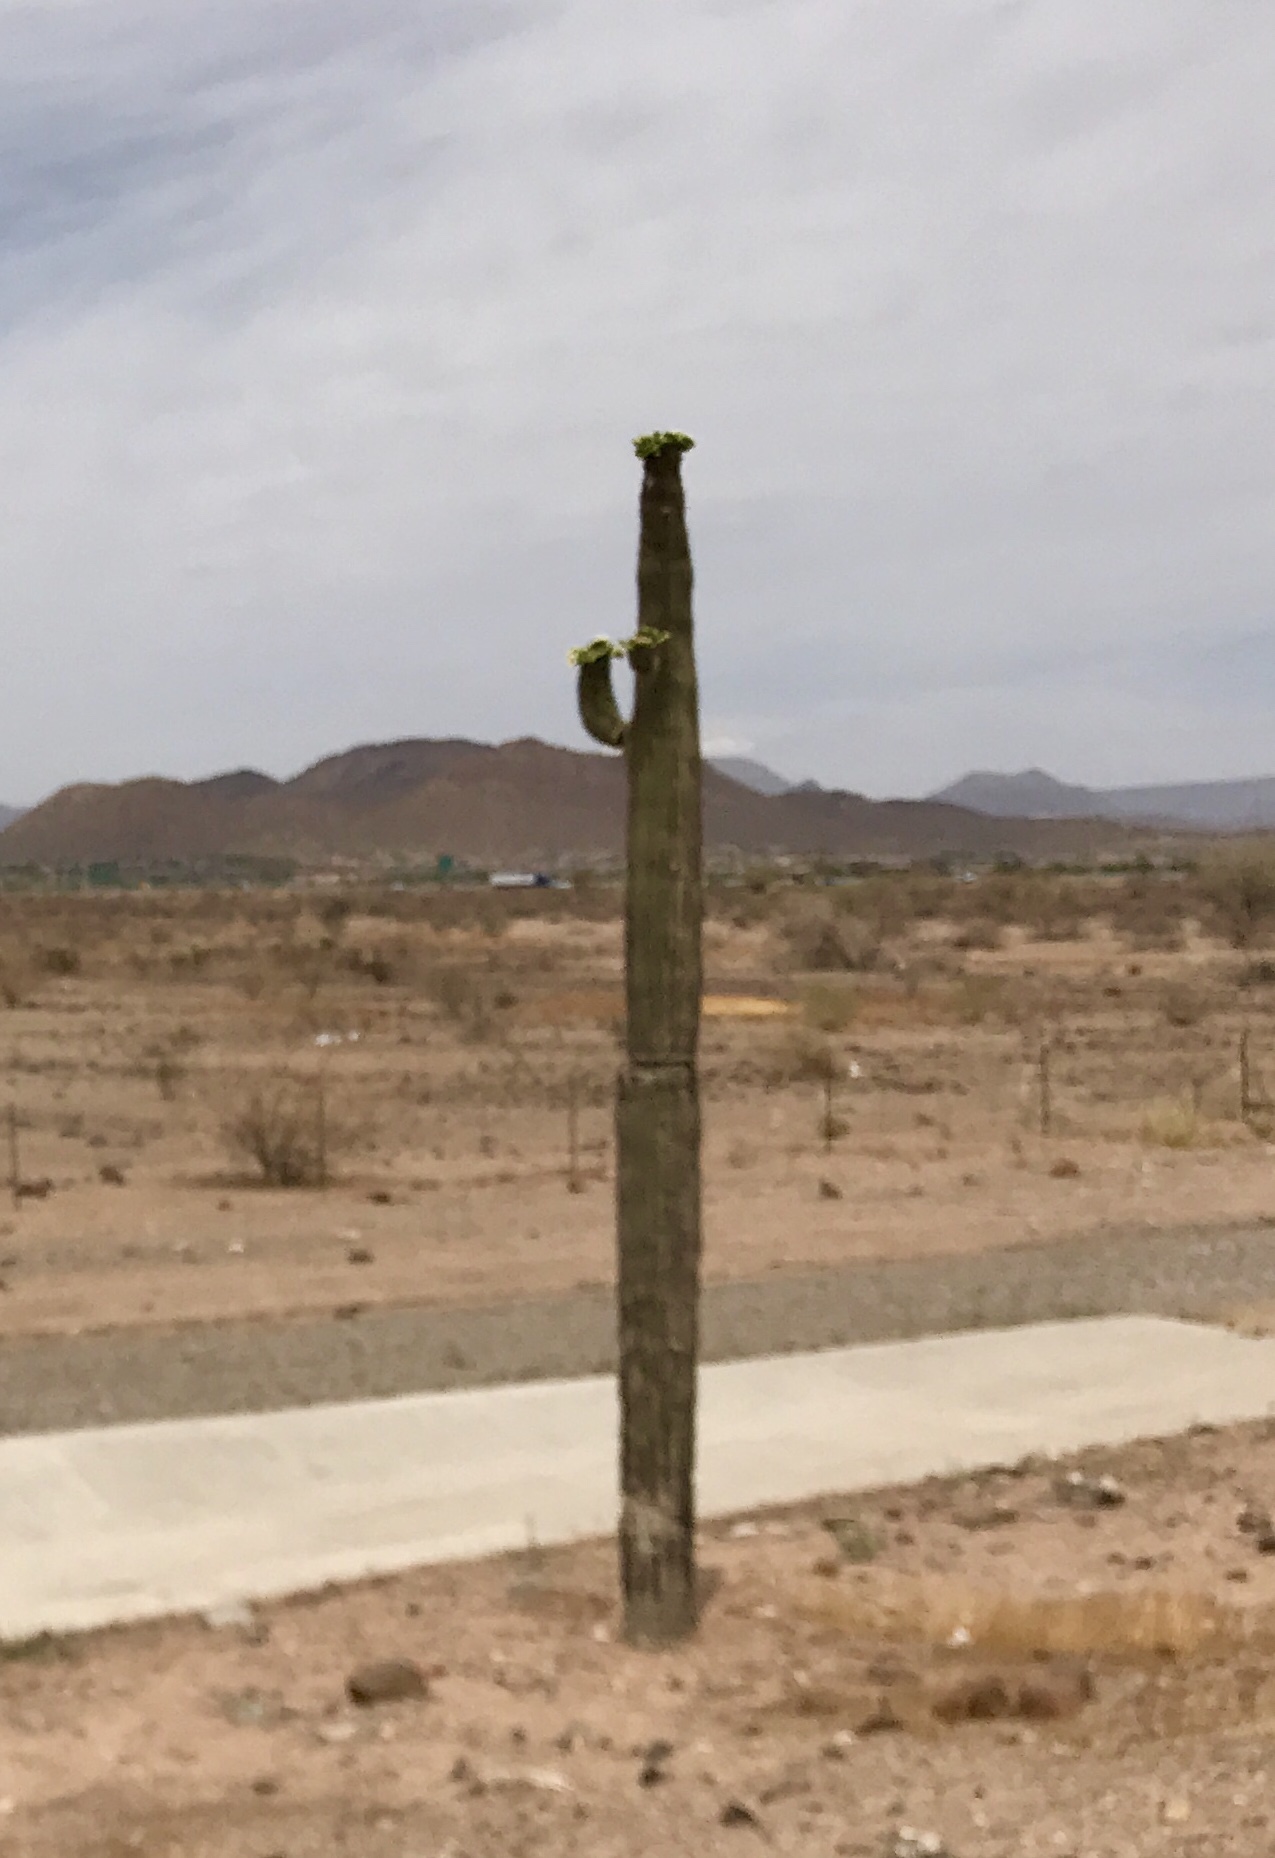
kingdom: Plantae
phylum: Tracheophyta
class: Magnoliopsida
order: Caryophyllales
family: Cactaceae
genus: Carnegiea
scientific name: Carnegiea gigantea
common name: Saguaro
